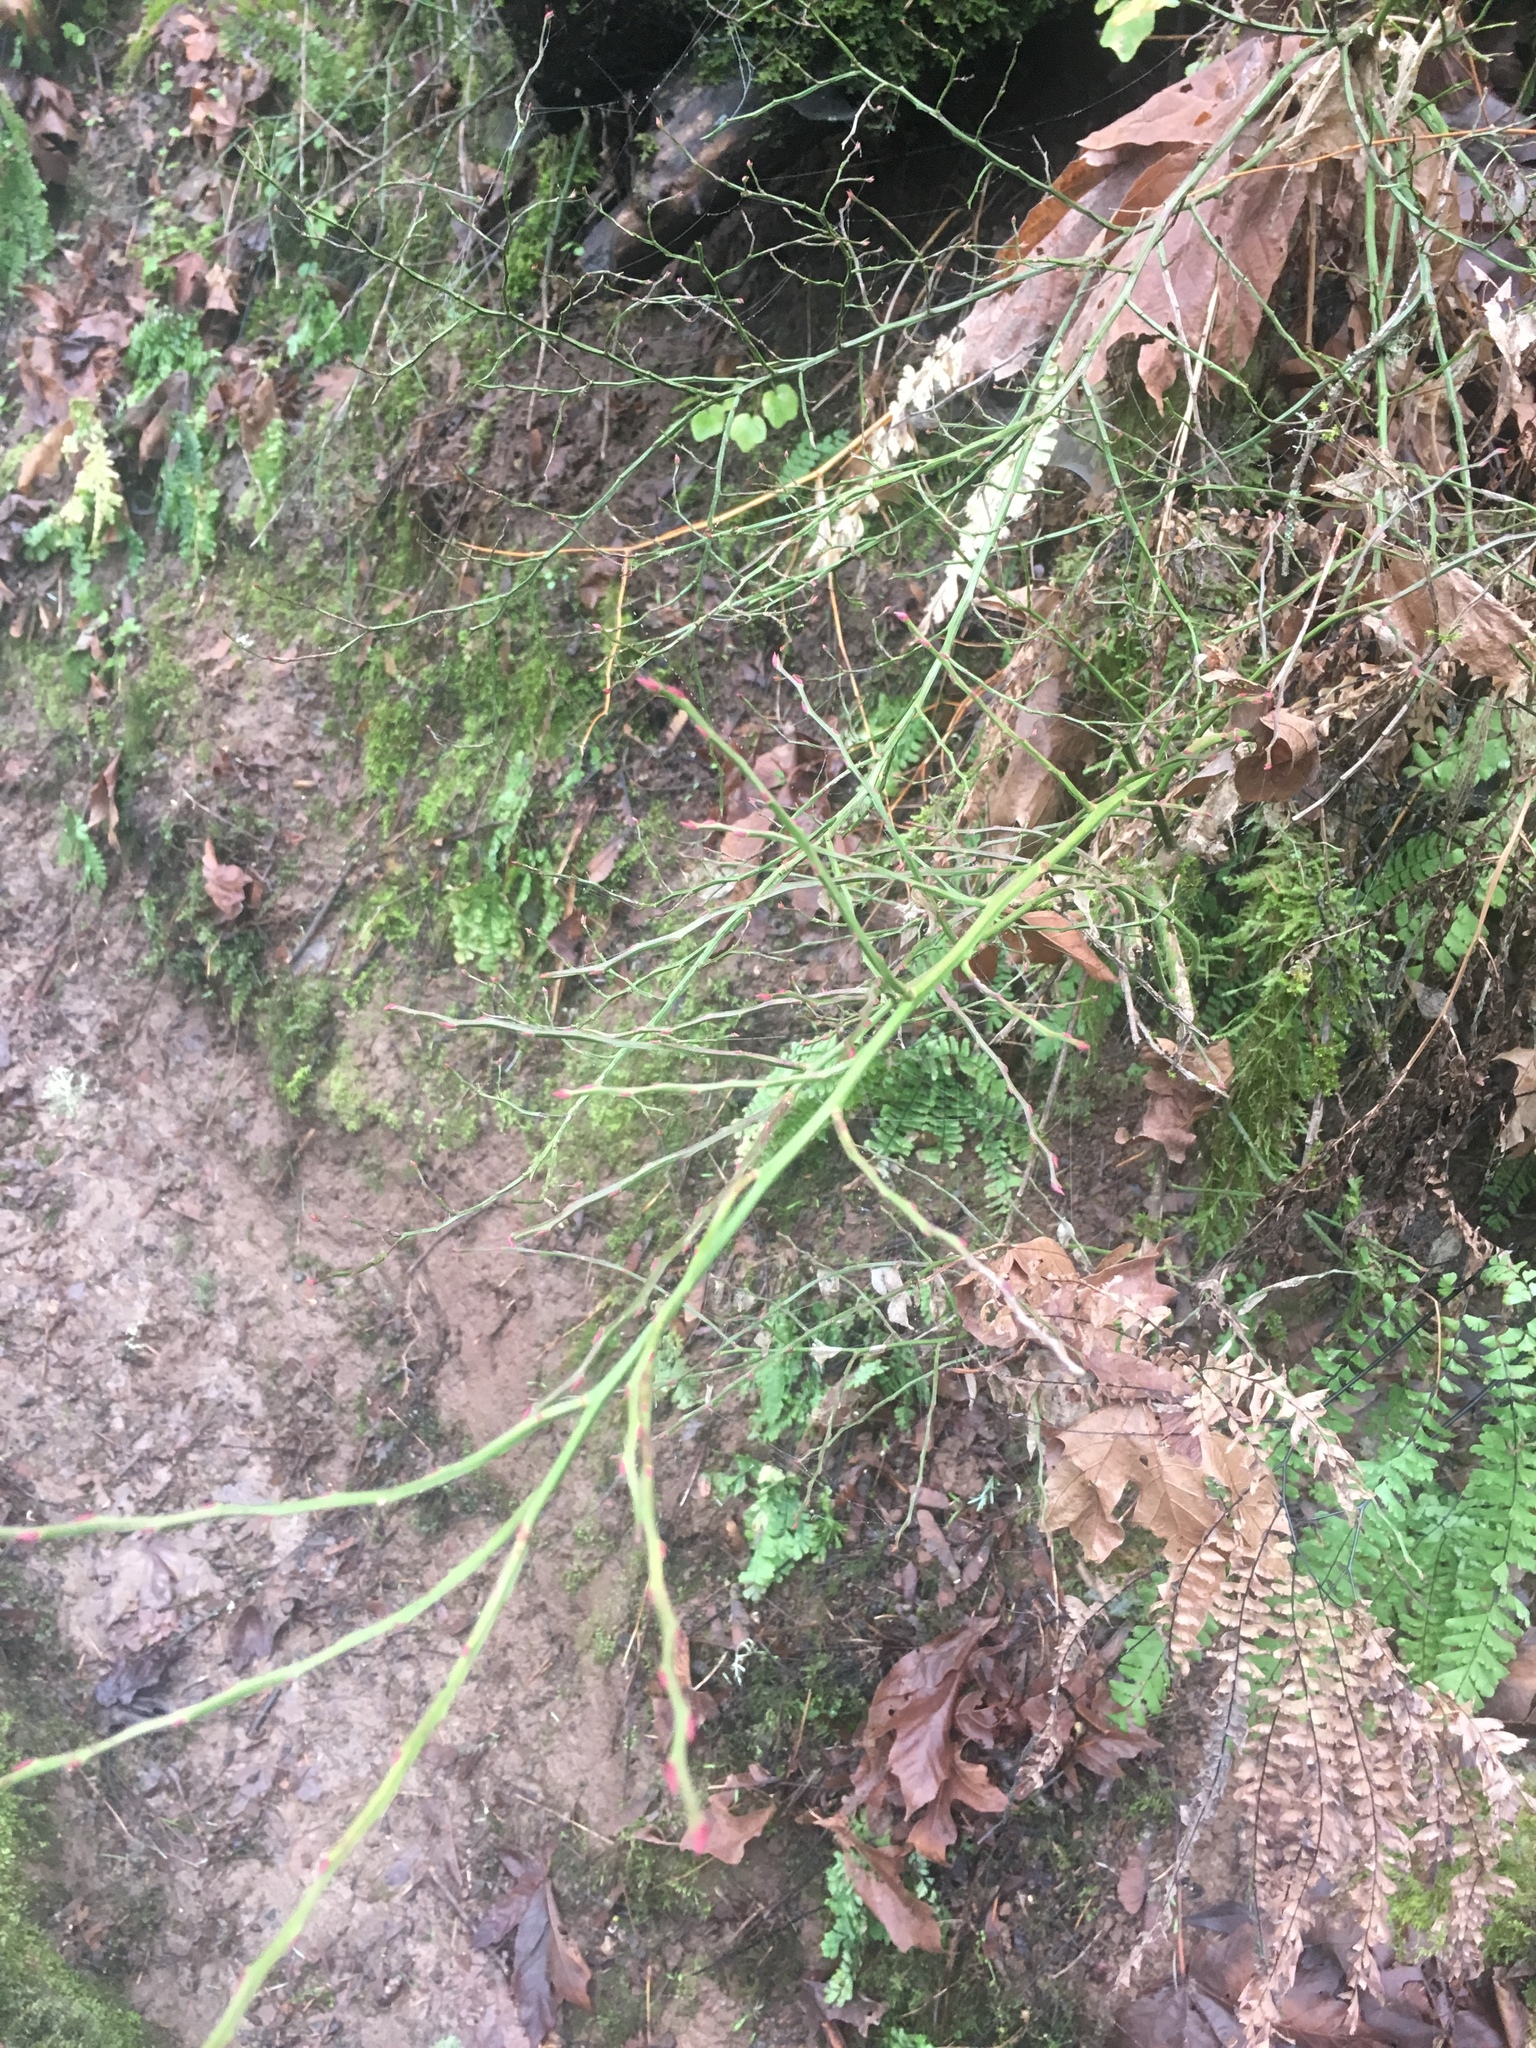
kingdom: Plantae
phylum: Tracheophyta
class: Magnoliopsida
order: Ericales
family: Ericaceae
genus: Vaccinium
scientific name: Vaccinium parvifolium
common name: Red-huckleberry
